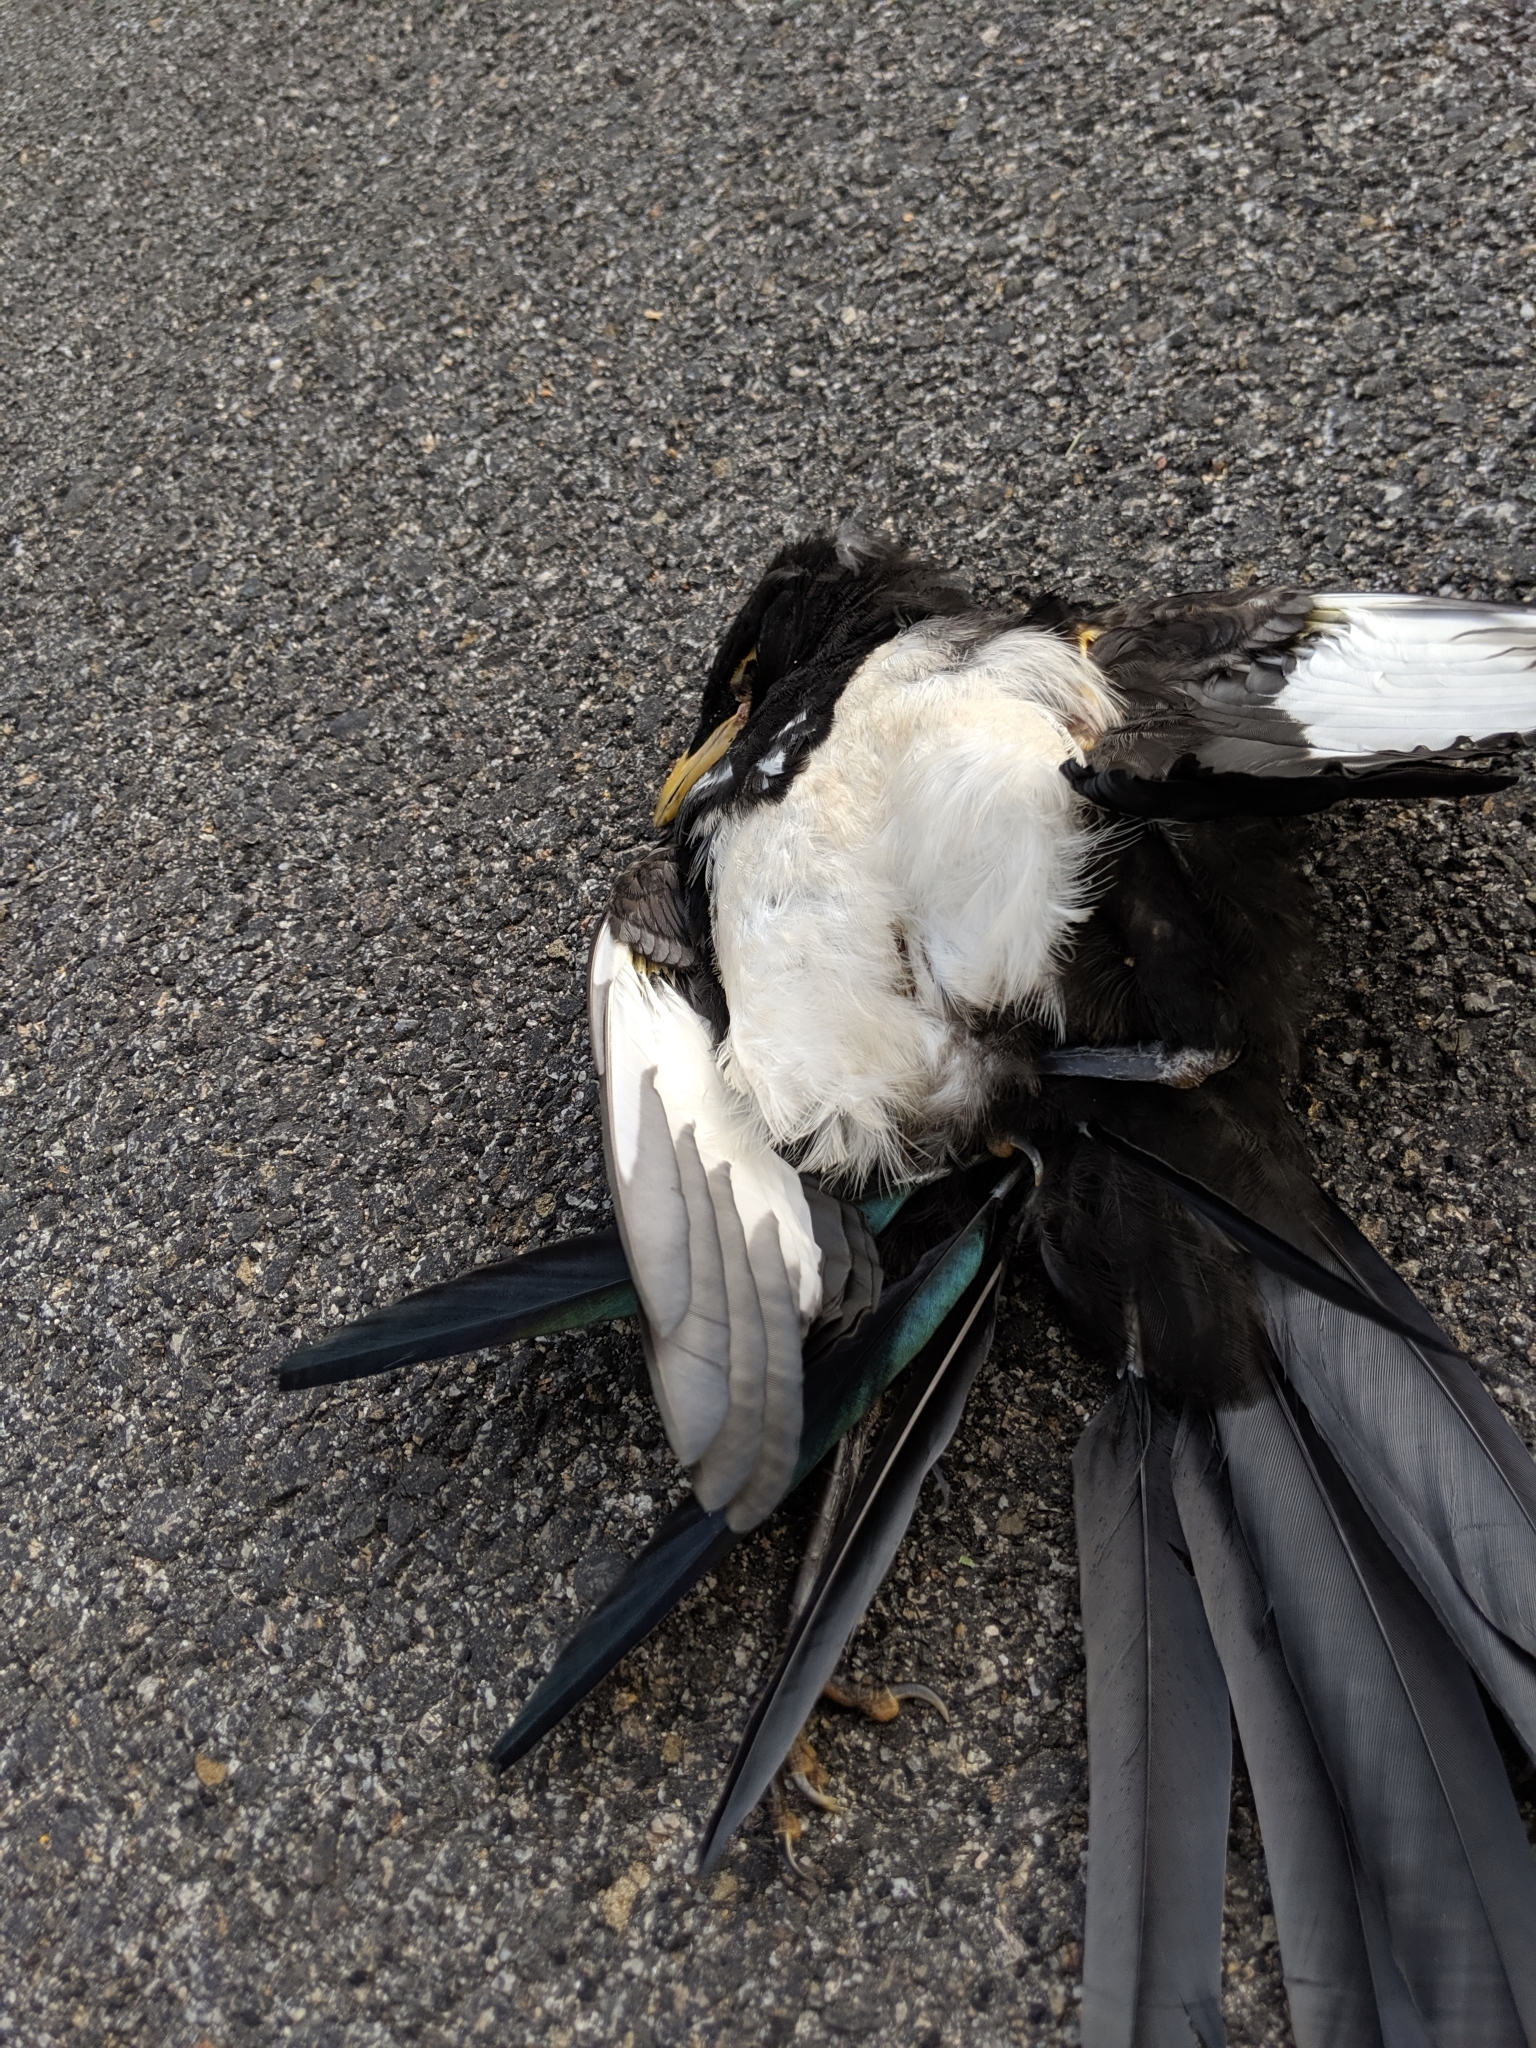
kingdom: Animalia
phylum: Chordata
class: Aves
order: Passeriformes
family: Corvidae
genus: Pica
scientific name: Pica nuttalli
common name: Yellow-billed magpie
